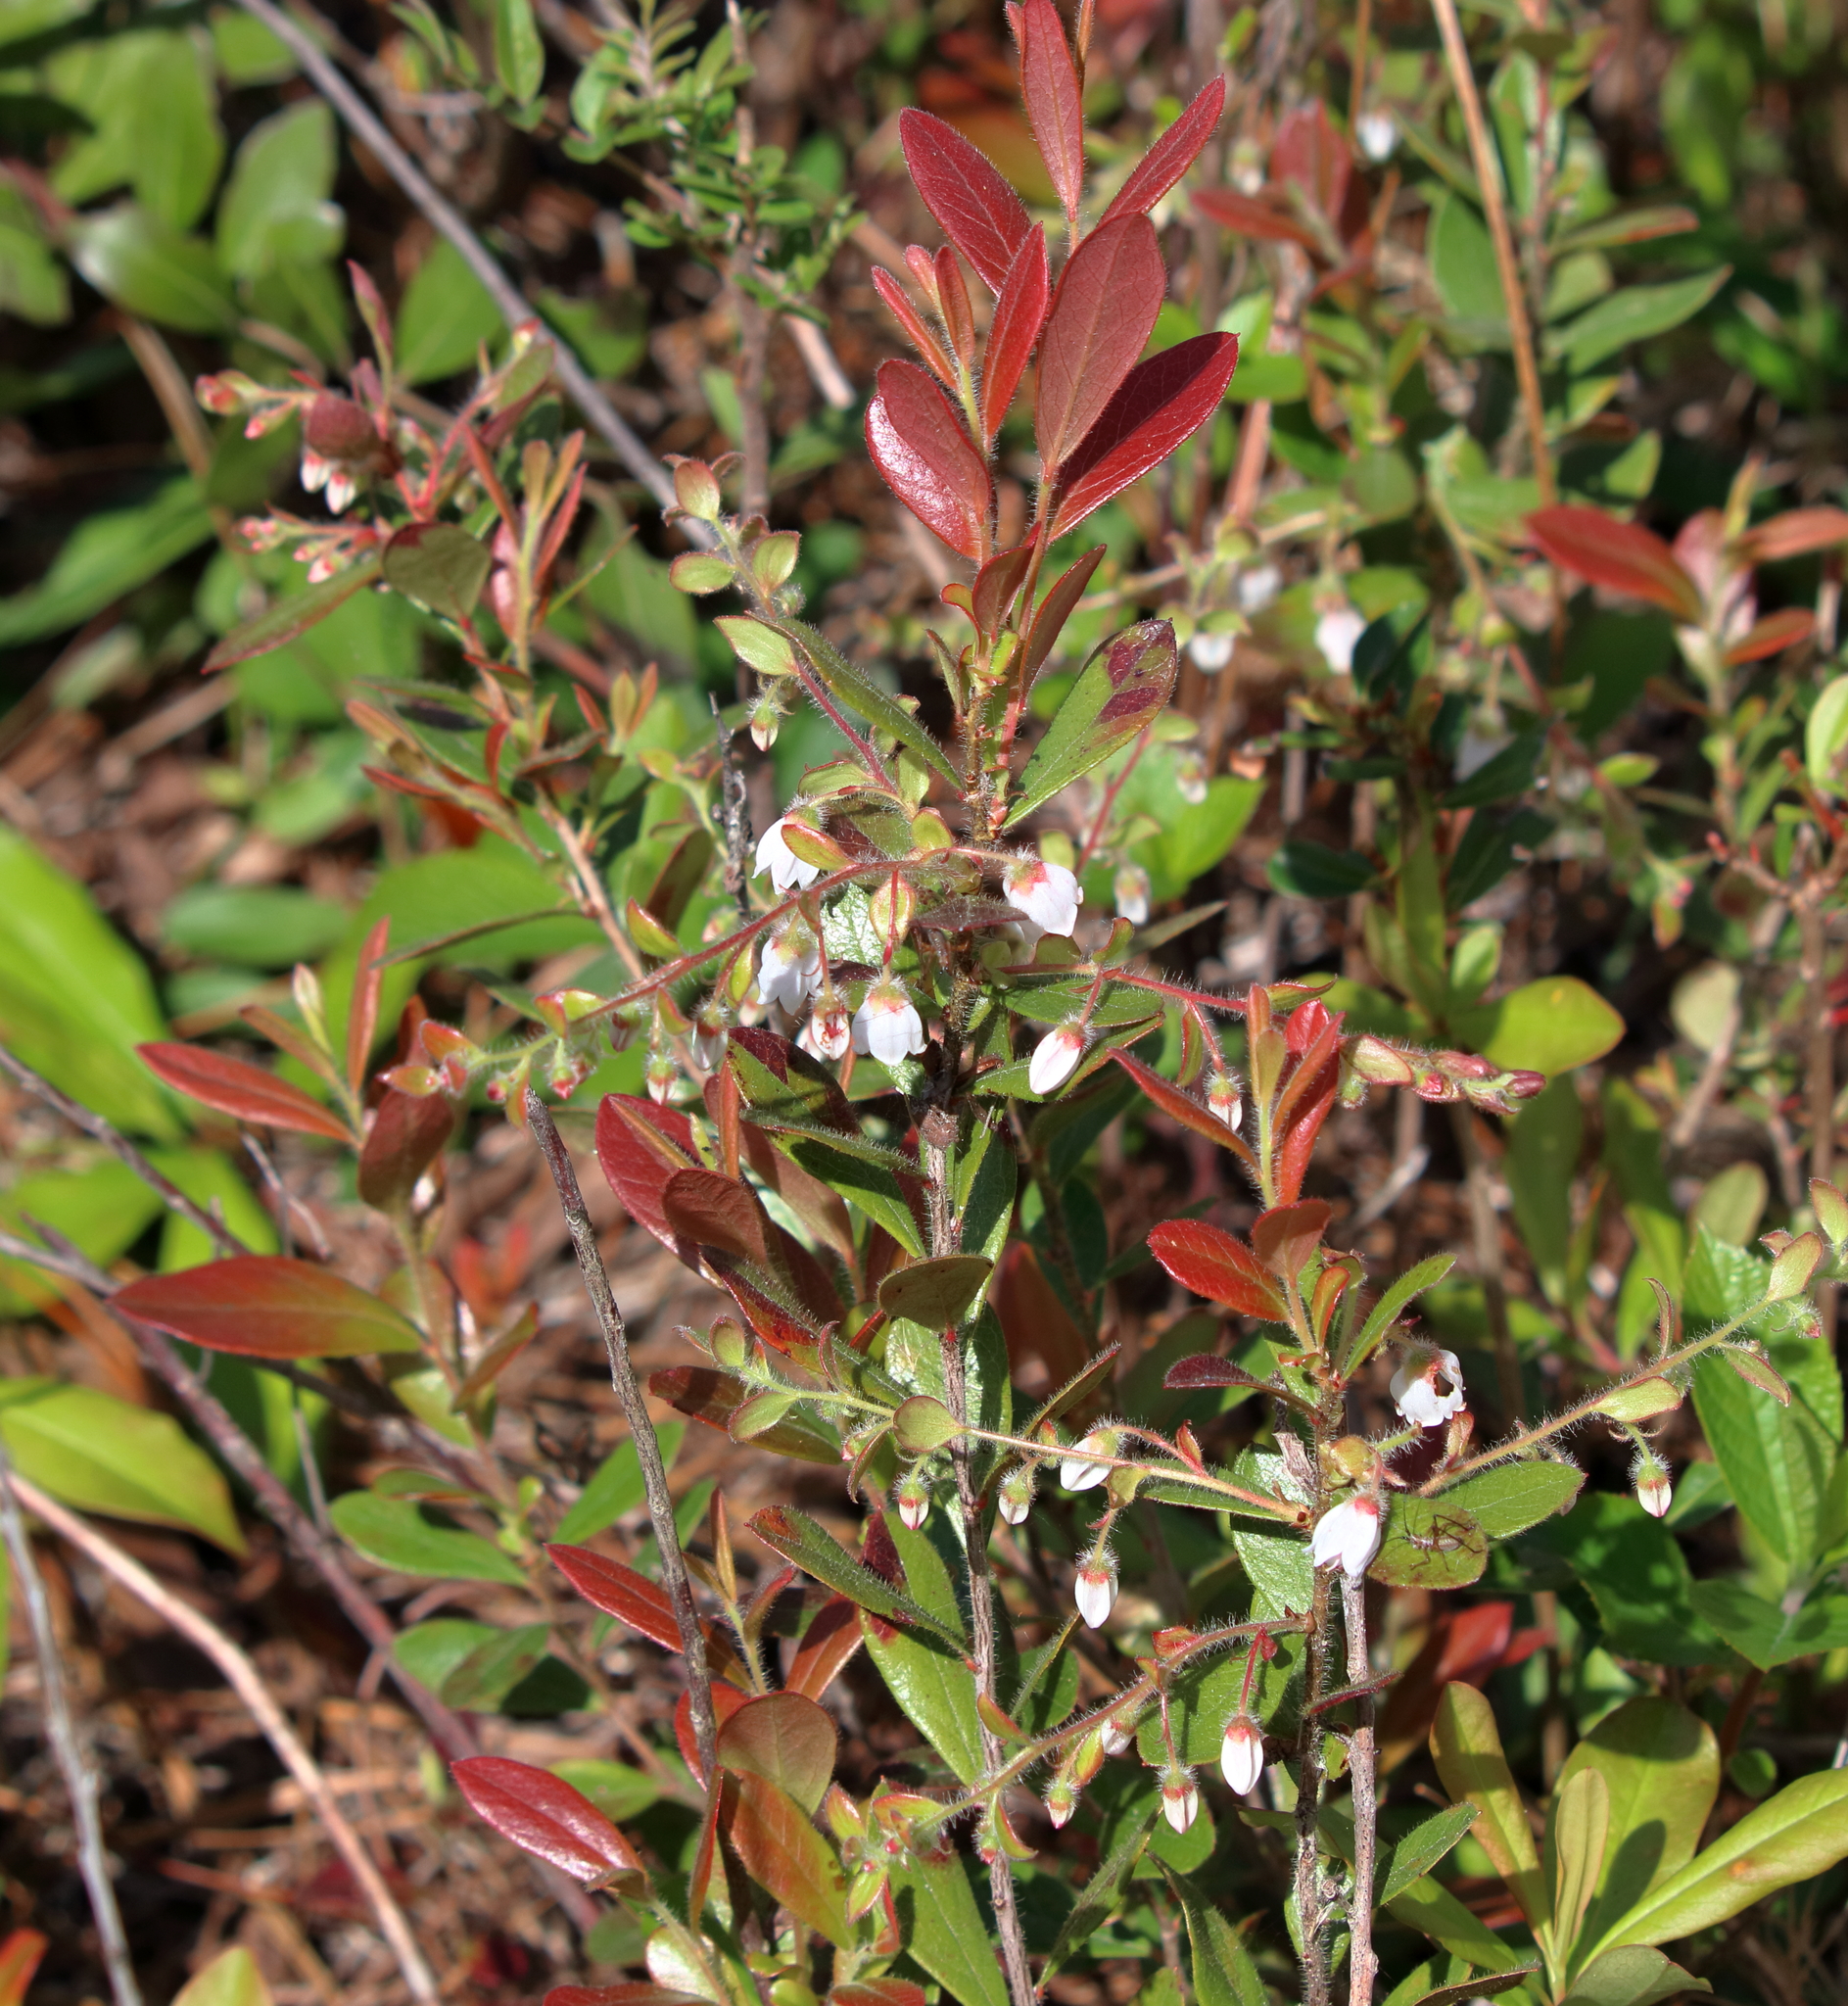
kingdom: Plantae
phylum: Tracheophyta
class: Magnoliopsida
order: Ericales
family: Ericaceae
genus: Gaylussacia
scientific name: Gaylussacia mosieri
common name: Hirsute huckleberry
